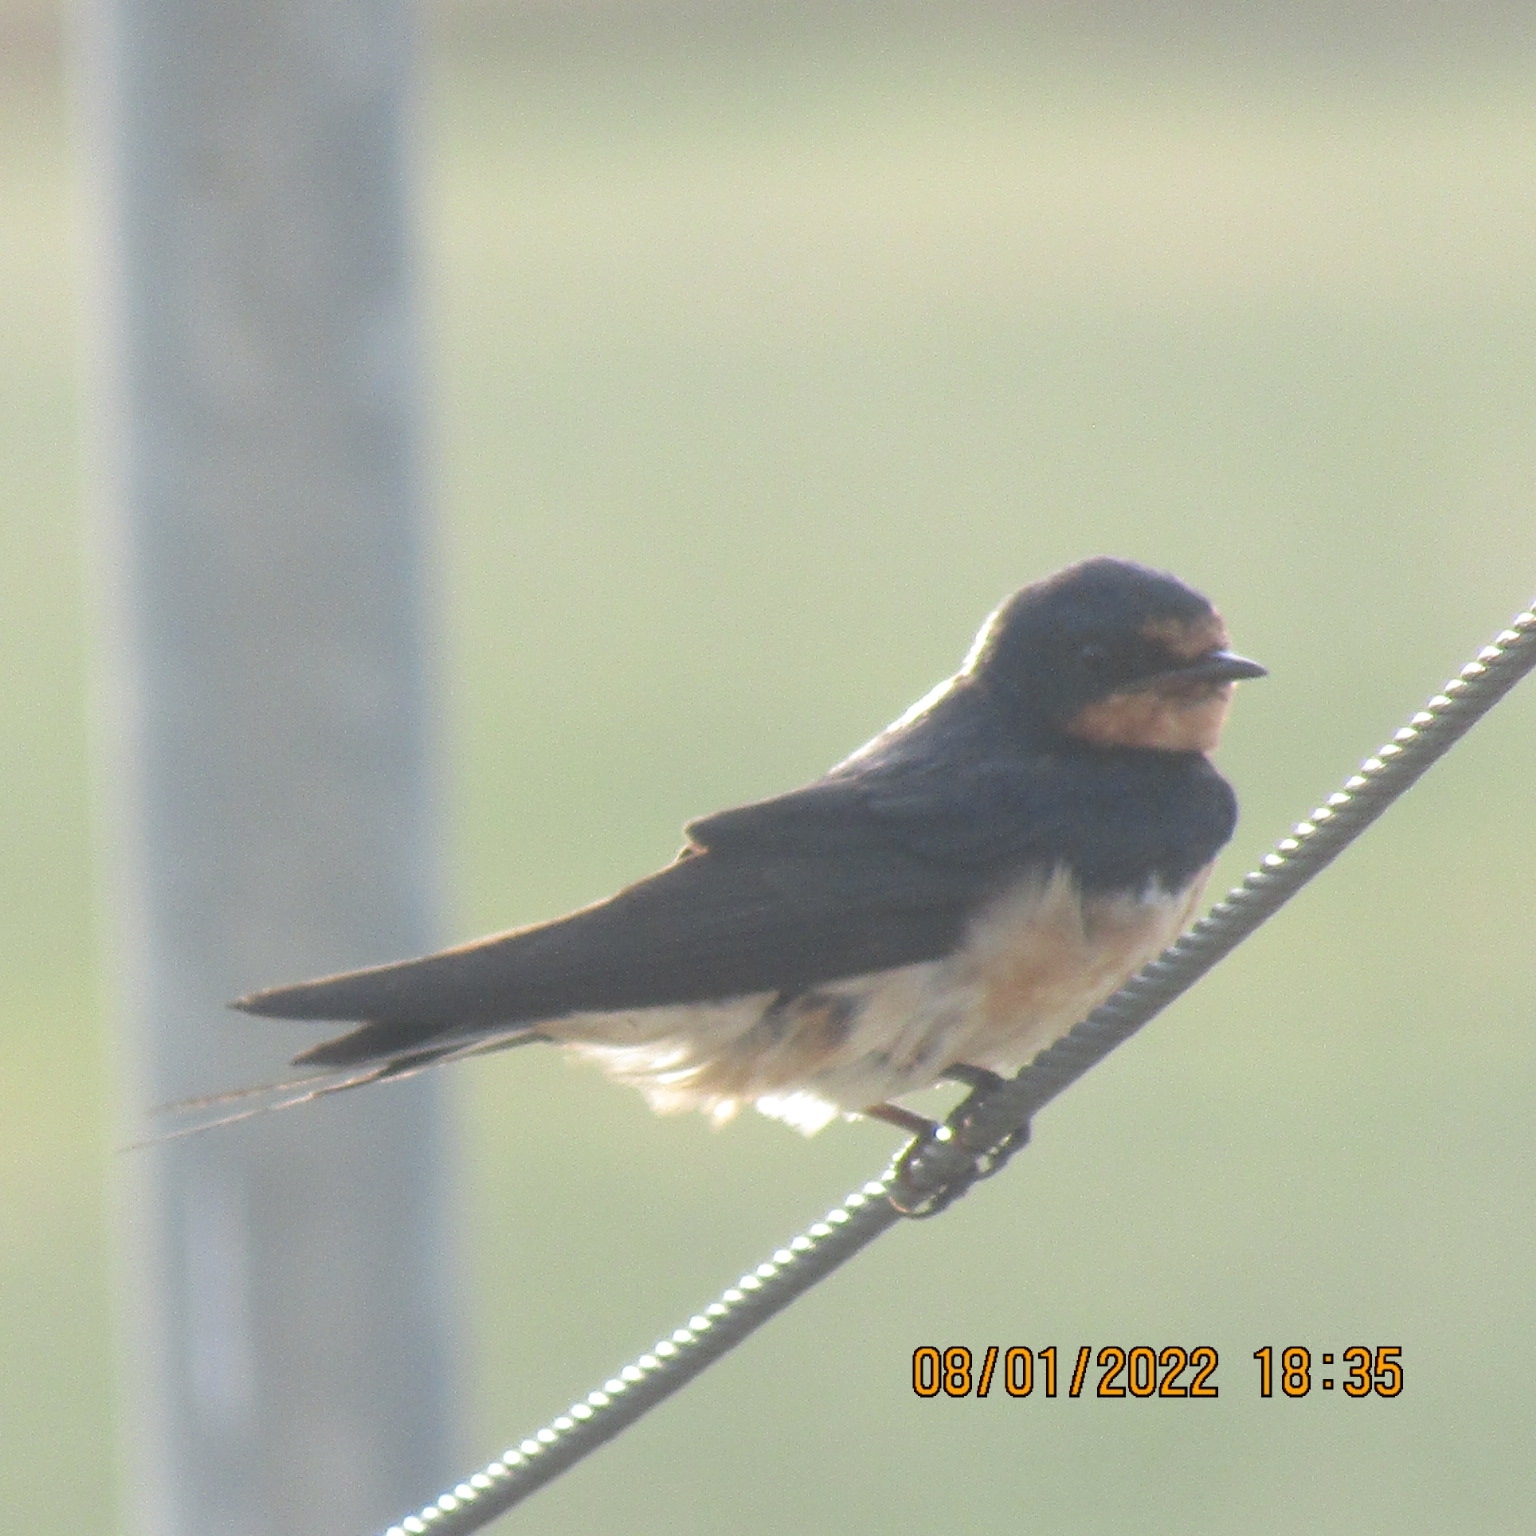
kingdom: Animalia
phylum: Chordata
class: Aves
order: Passeriformes
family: Hirundinidae
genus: Hirundo
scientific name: Hirundo rustica
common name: Barn swallow
